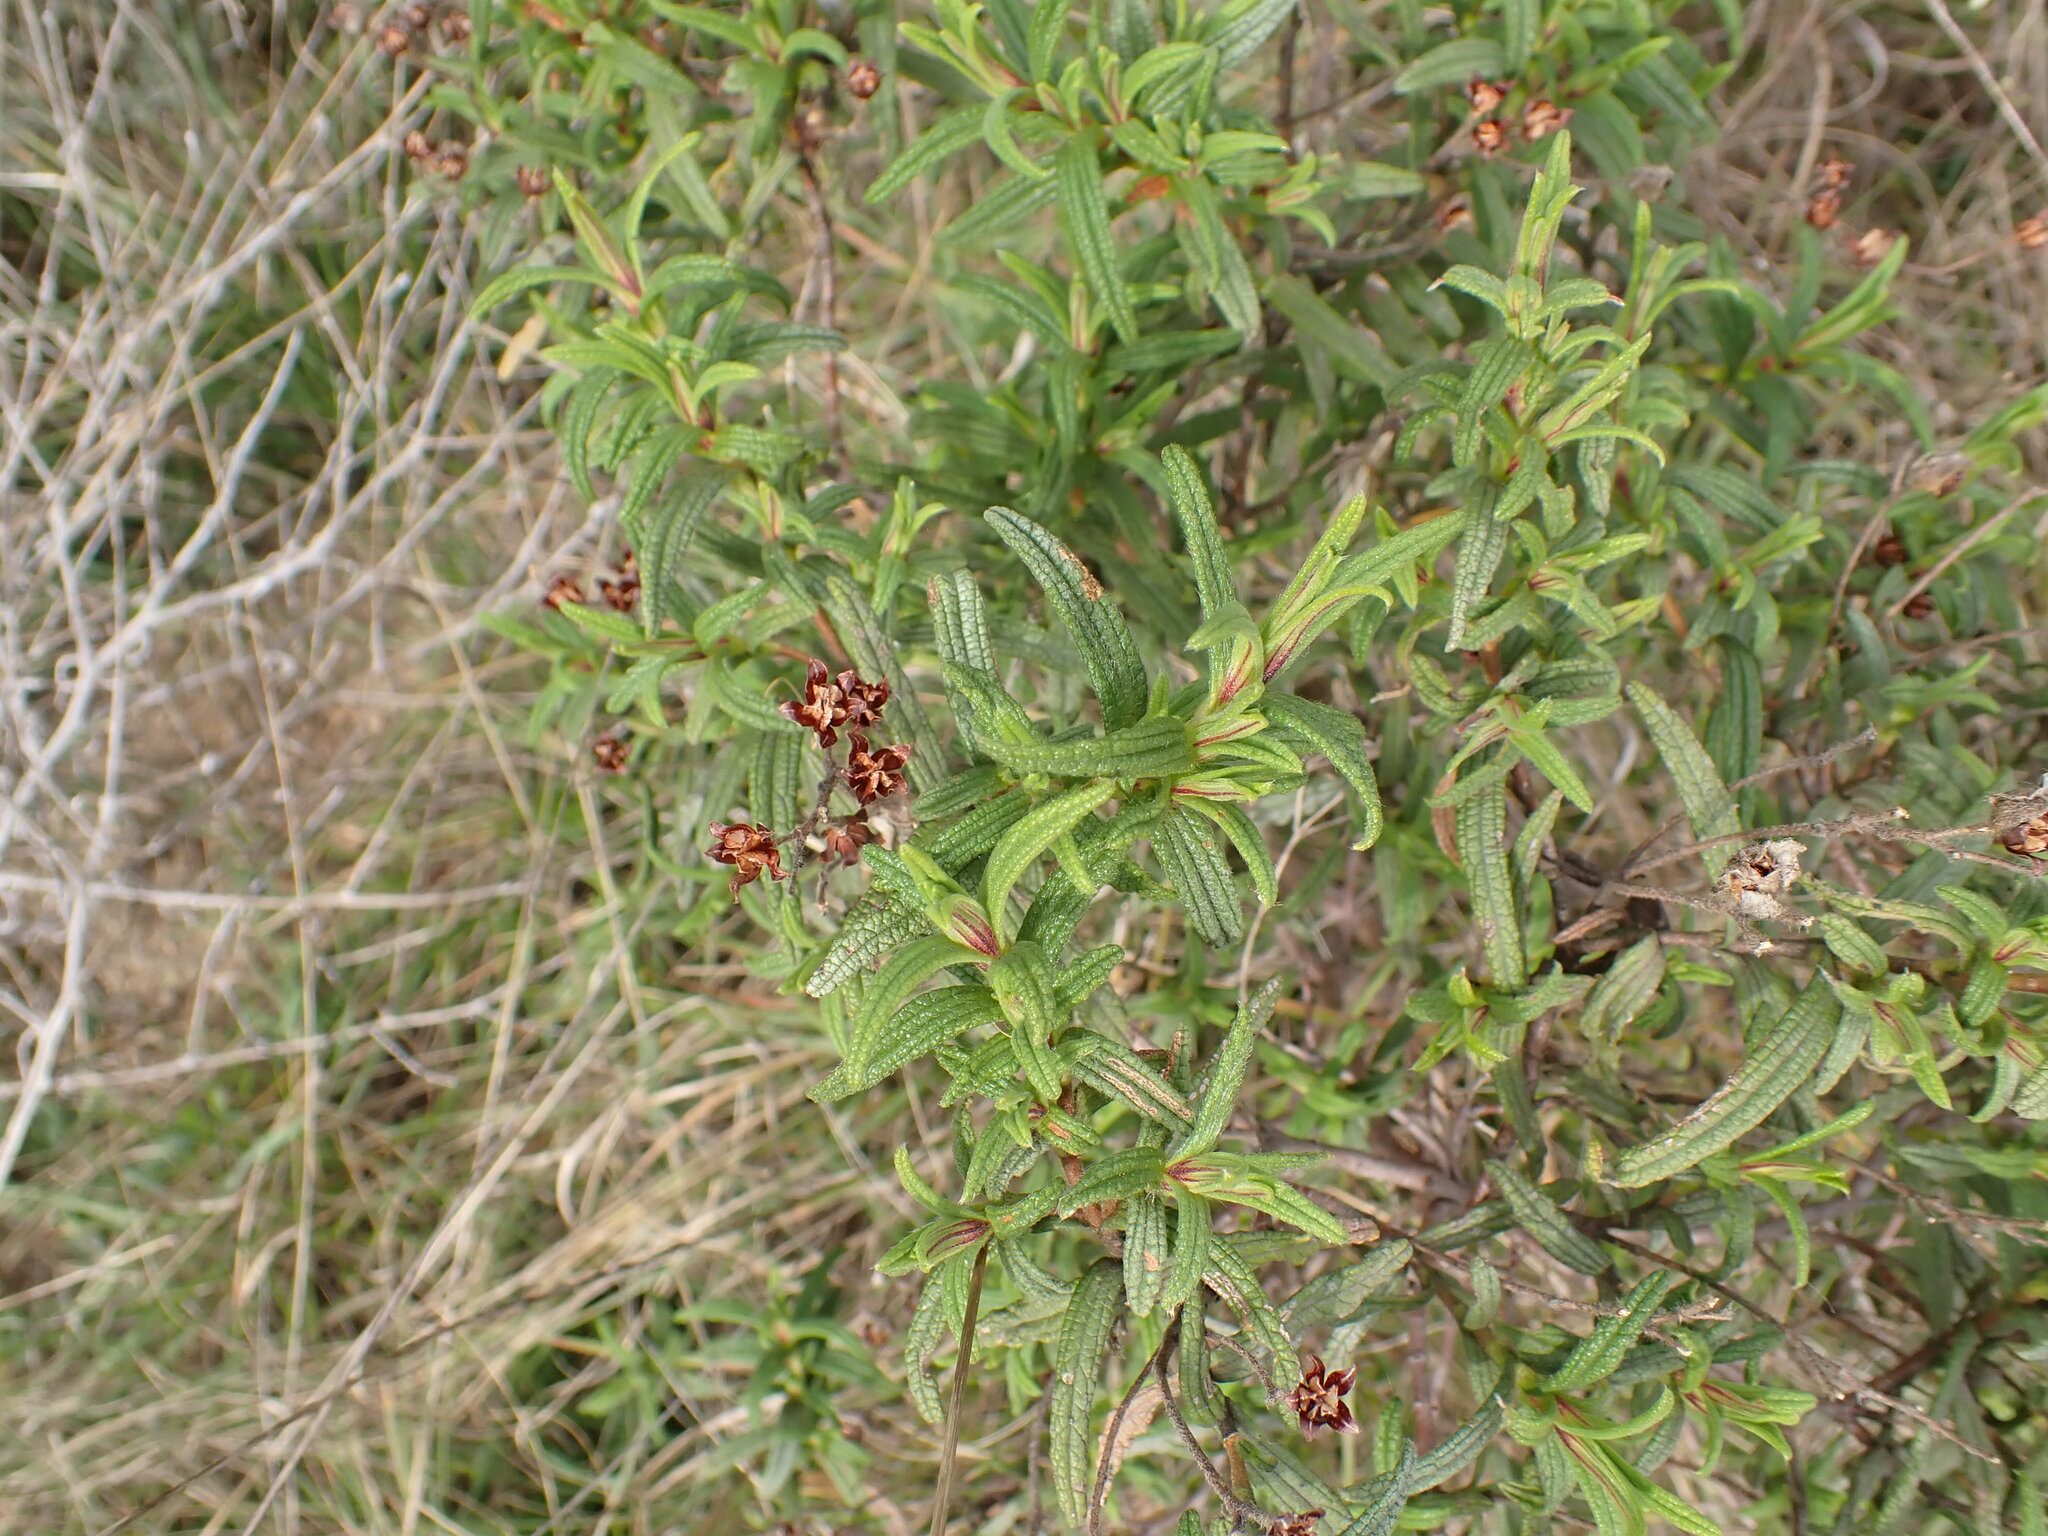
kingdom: Plantae
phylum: Tracheophyta
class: Magnoliopsida
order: Malvales
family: Cistaceae
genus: Cistus
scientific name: Cistus monspeliensis
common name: Montpelier cistus
